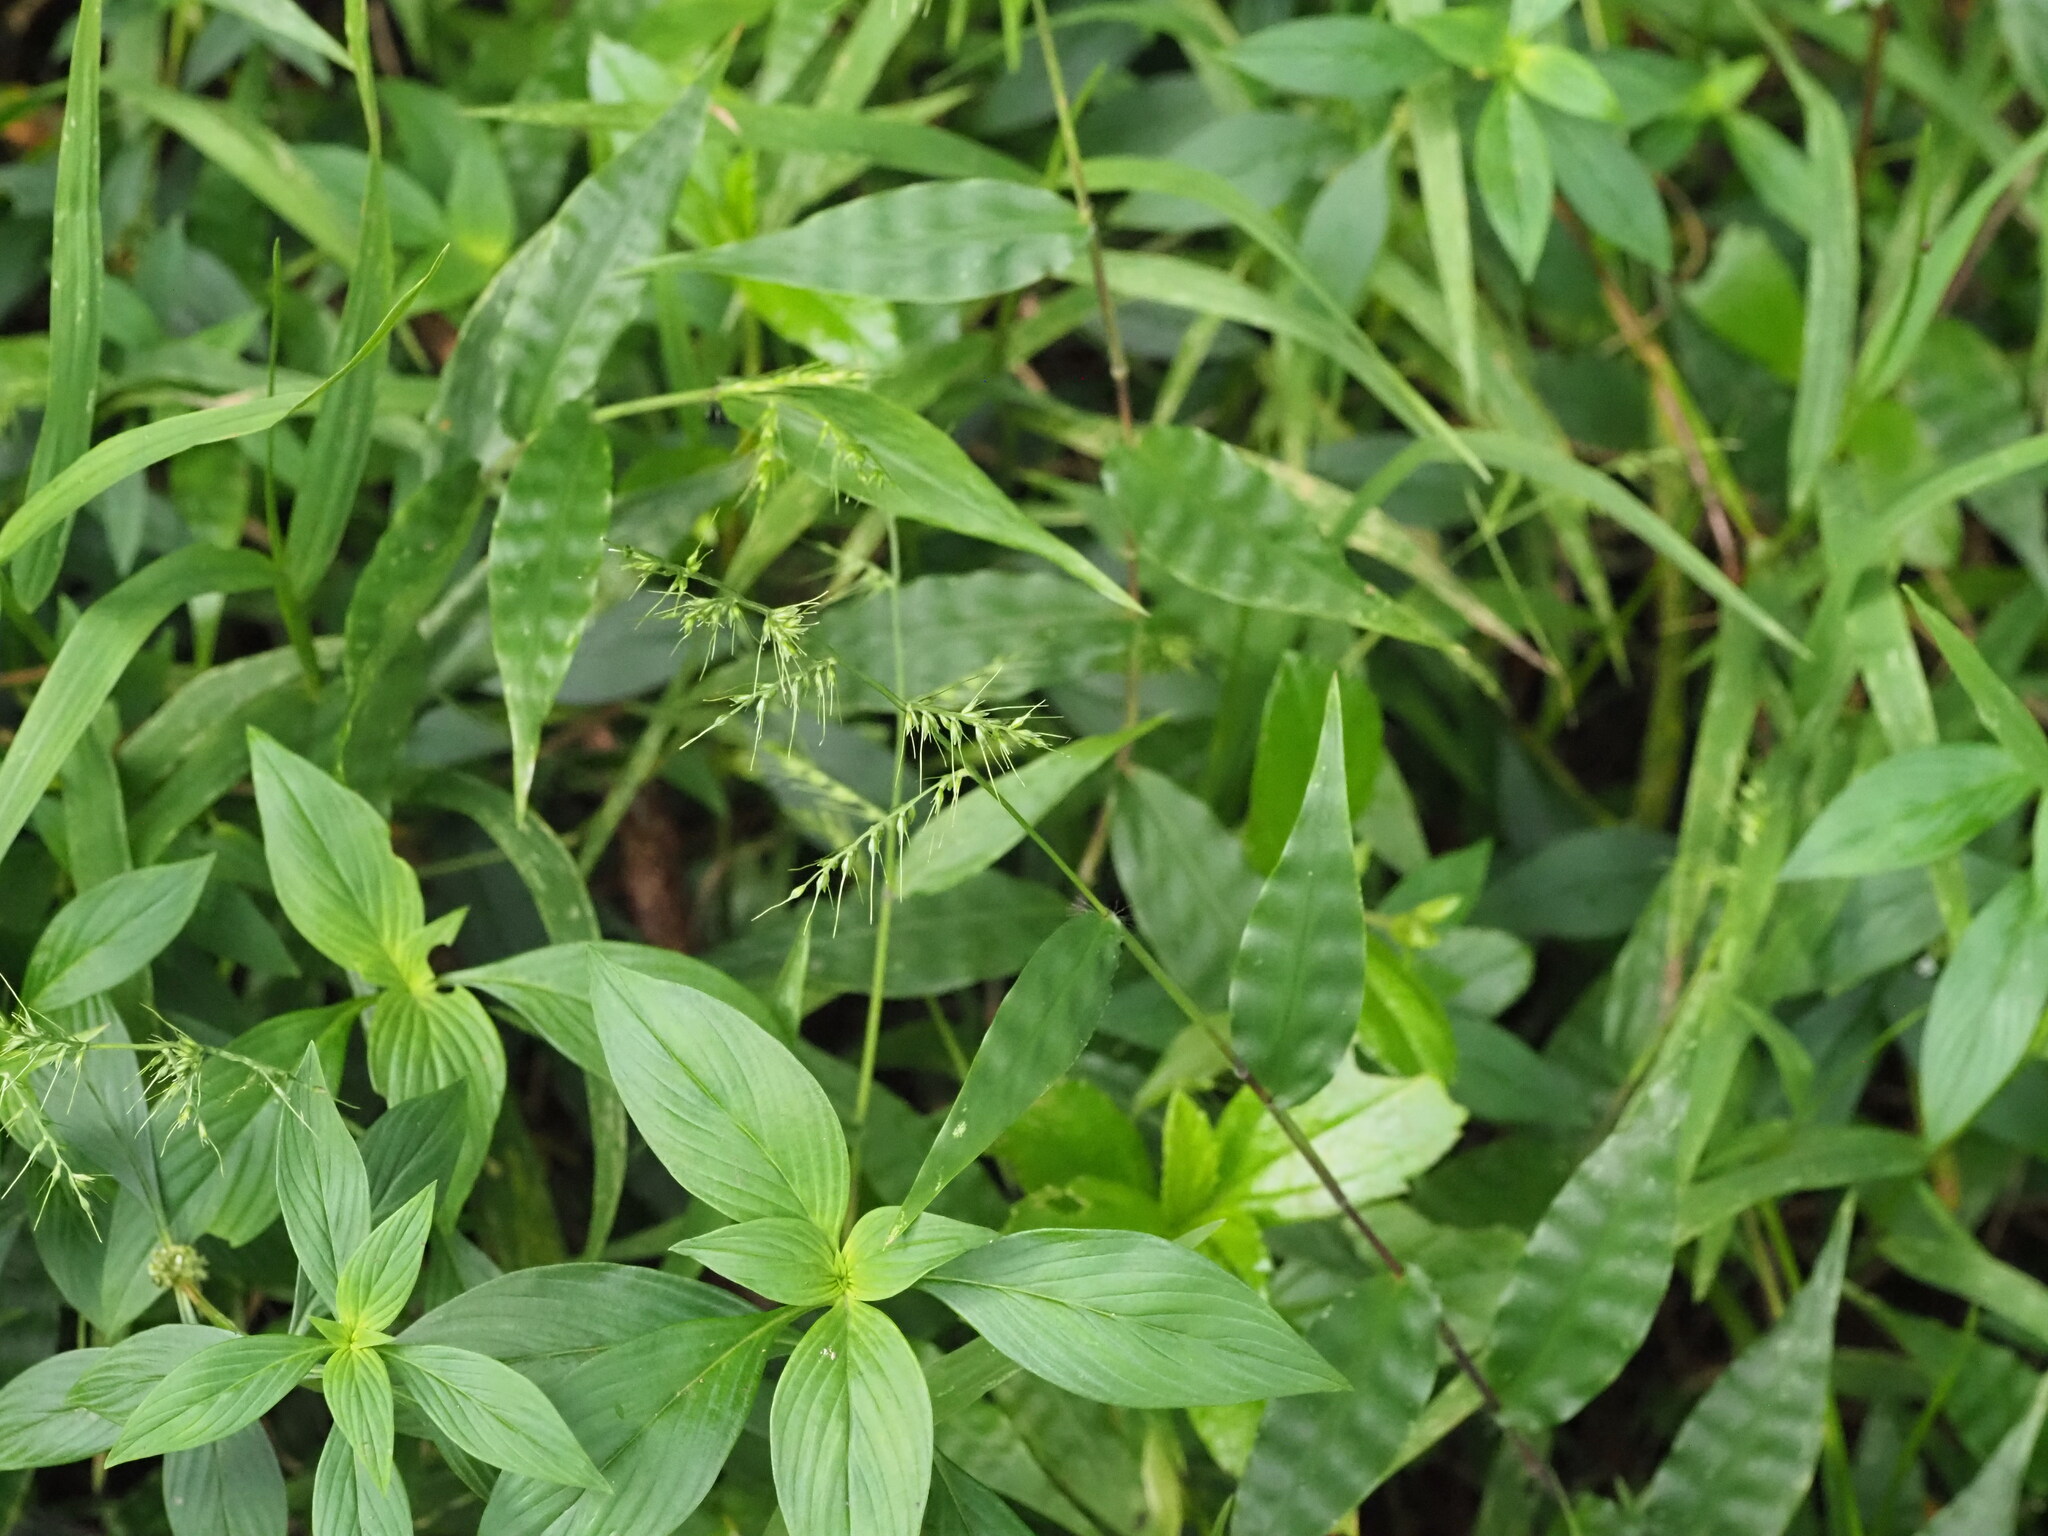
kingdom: Plantae
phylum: Tracheophyta
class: Liliopsida
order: Poales
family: Poaceae
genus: Oplismenus
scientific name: Oplismenus hirtellus
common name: Basketgrass
